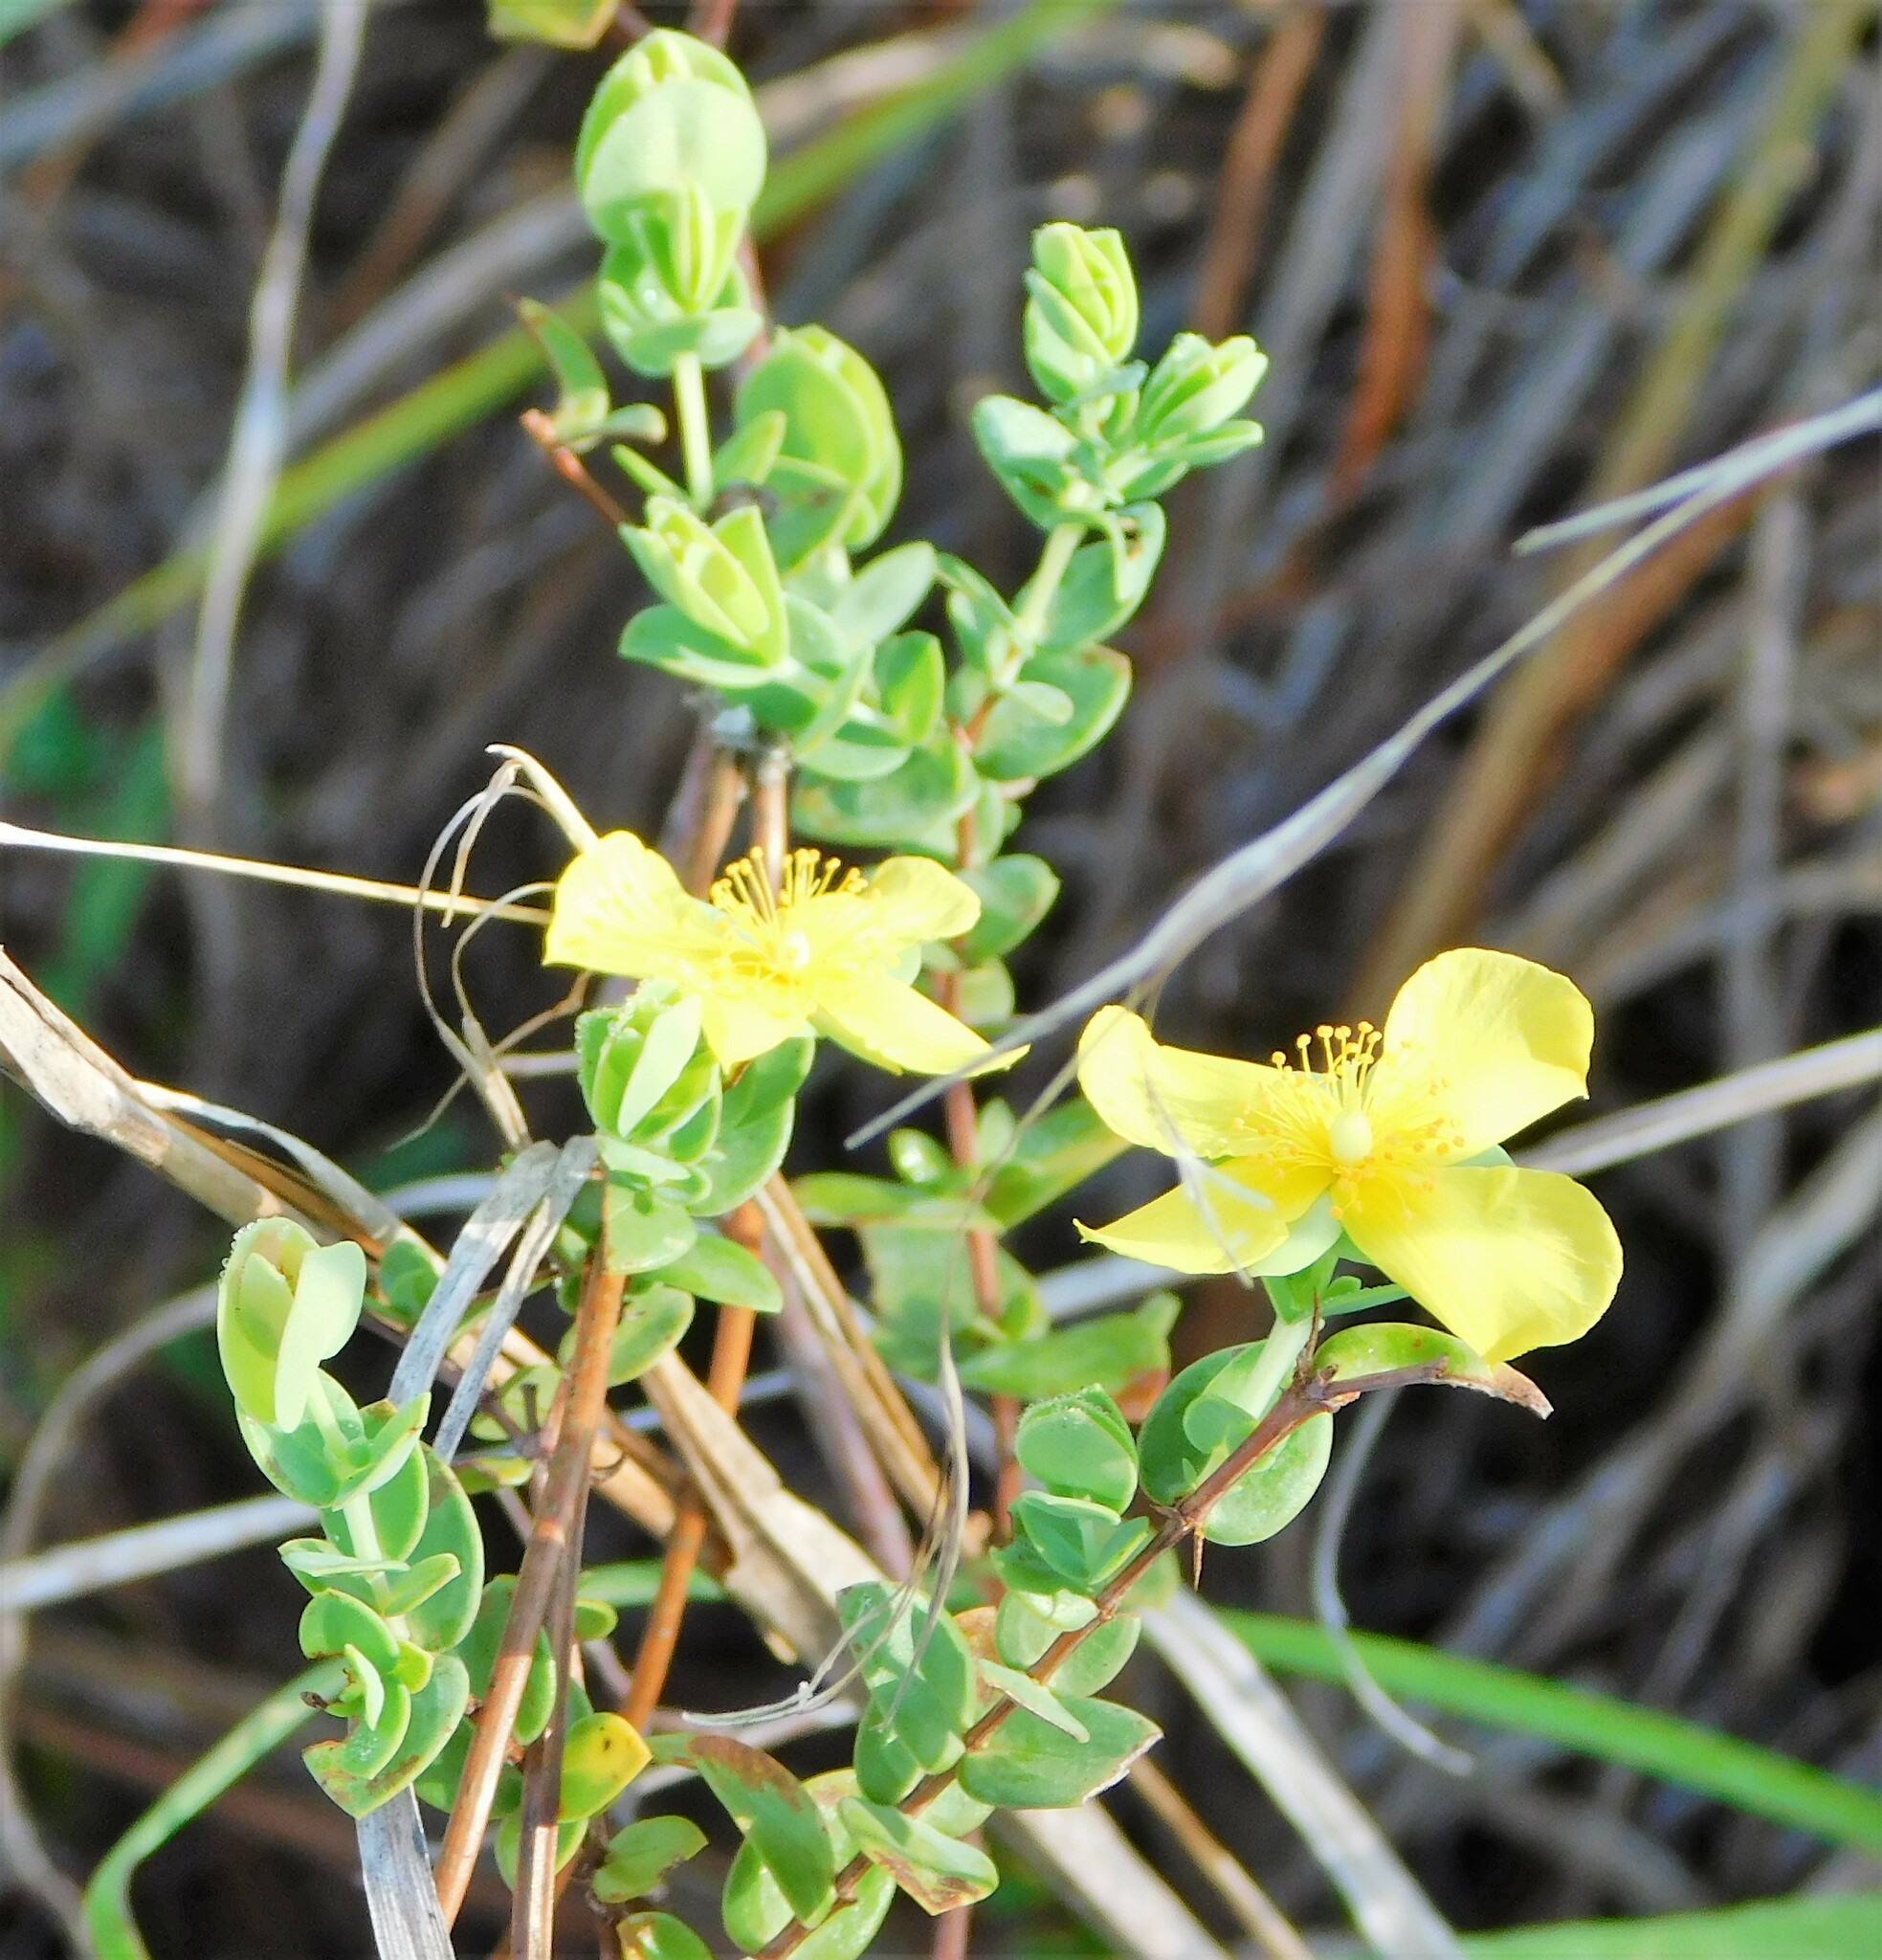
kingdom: Plantae
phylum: Tracheophyta
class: Magnoliopsida
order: Malpighiales
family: Hypericaceae
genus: Hypericum
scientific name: Hypericum tetrapetalum
